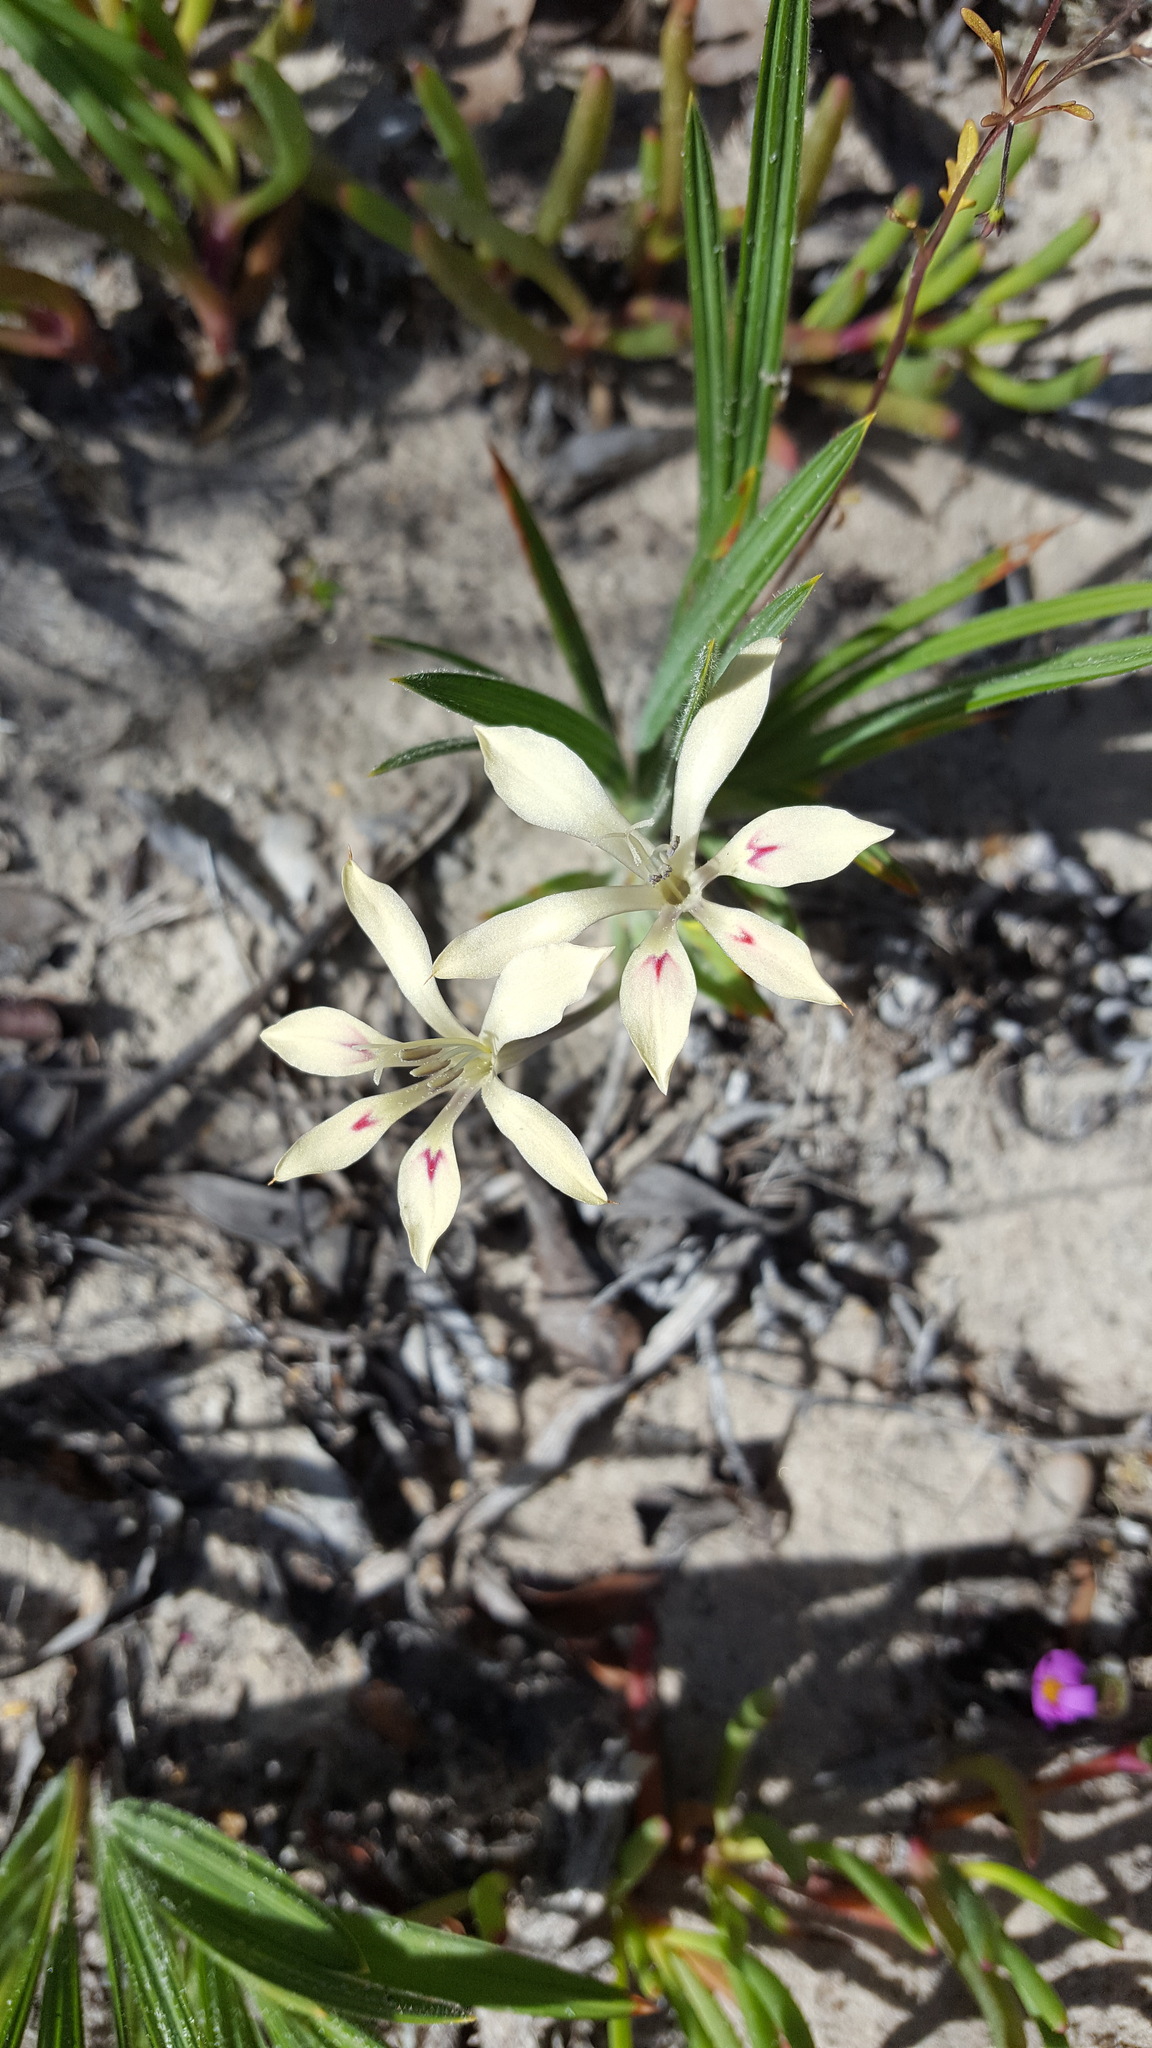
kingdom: Plantae
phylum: Tracheophyta
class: Liliopsida
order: Asparagales
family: Iridaceae
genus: Babiana
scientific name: Babiana tubiflora
